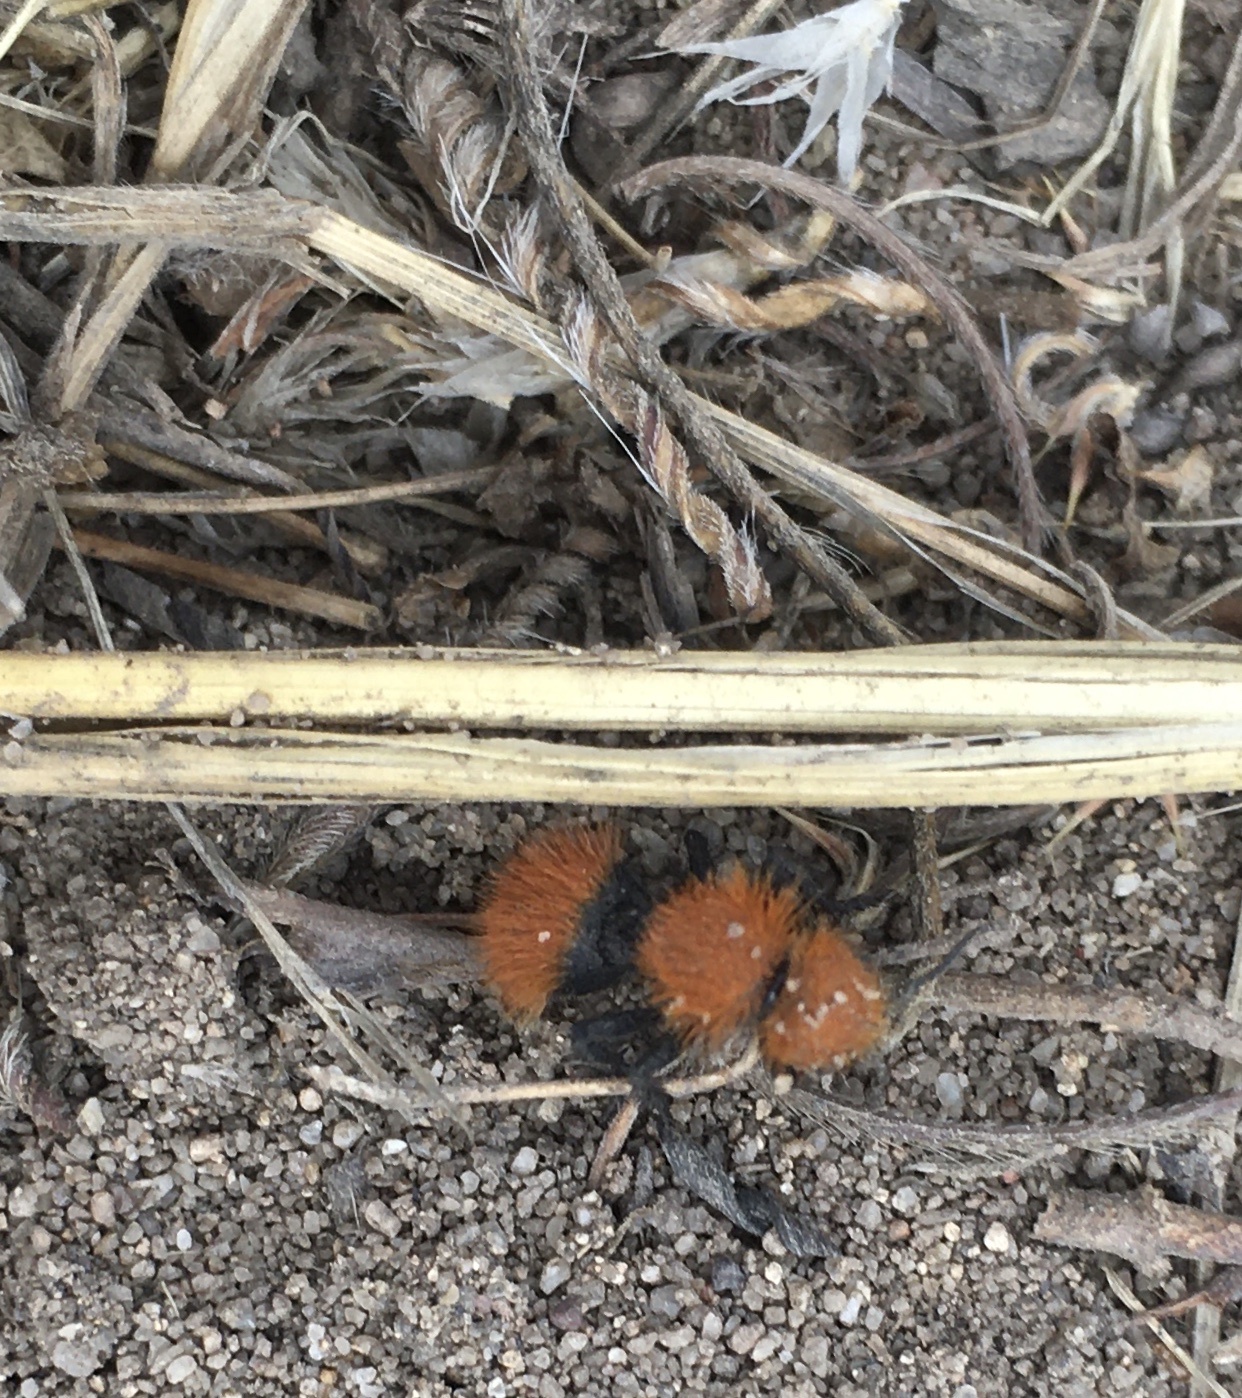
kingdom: Animalia
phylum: Arthropoda
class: Insecta
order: Hymenoptera
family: Mutillidae
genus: Dasymutilla
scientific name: Dasymutilla
